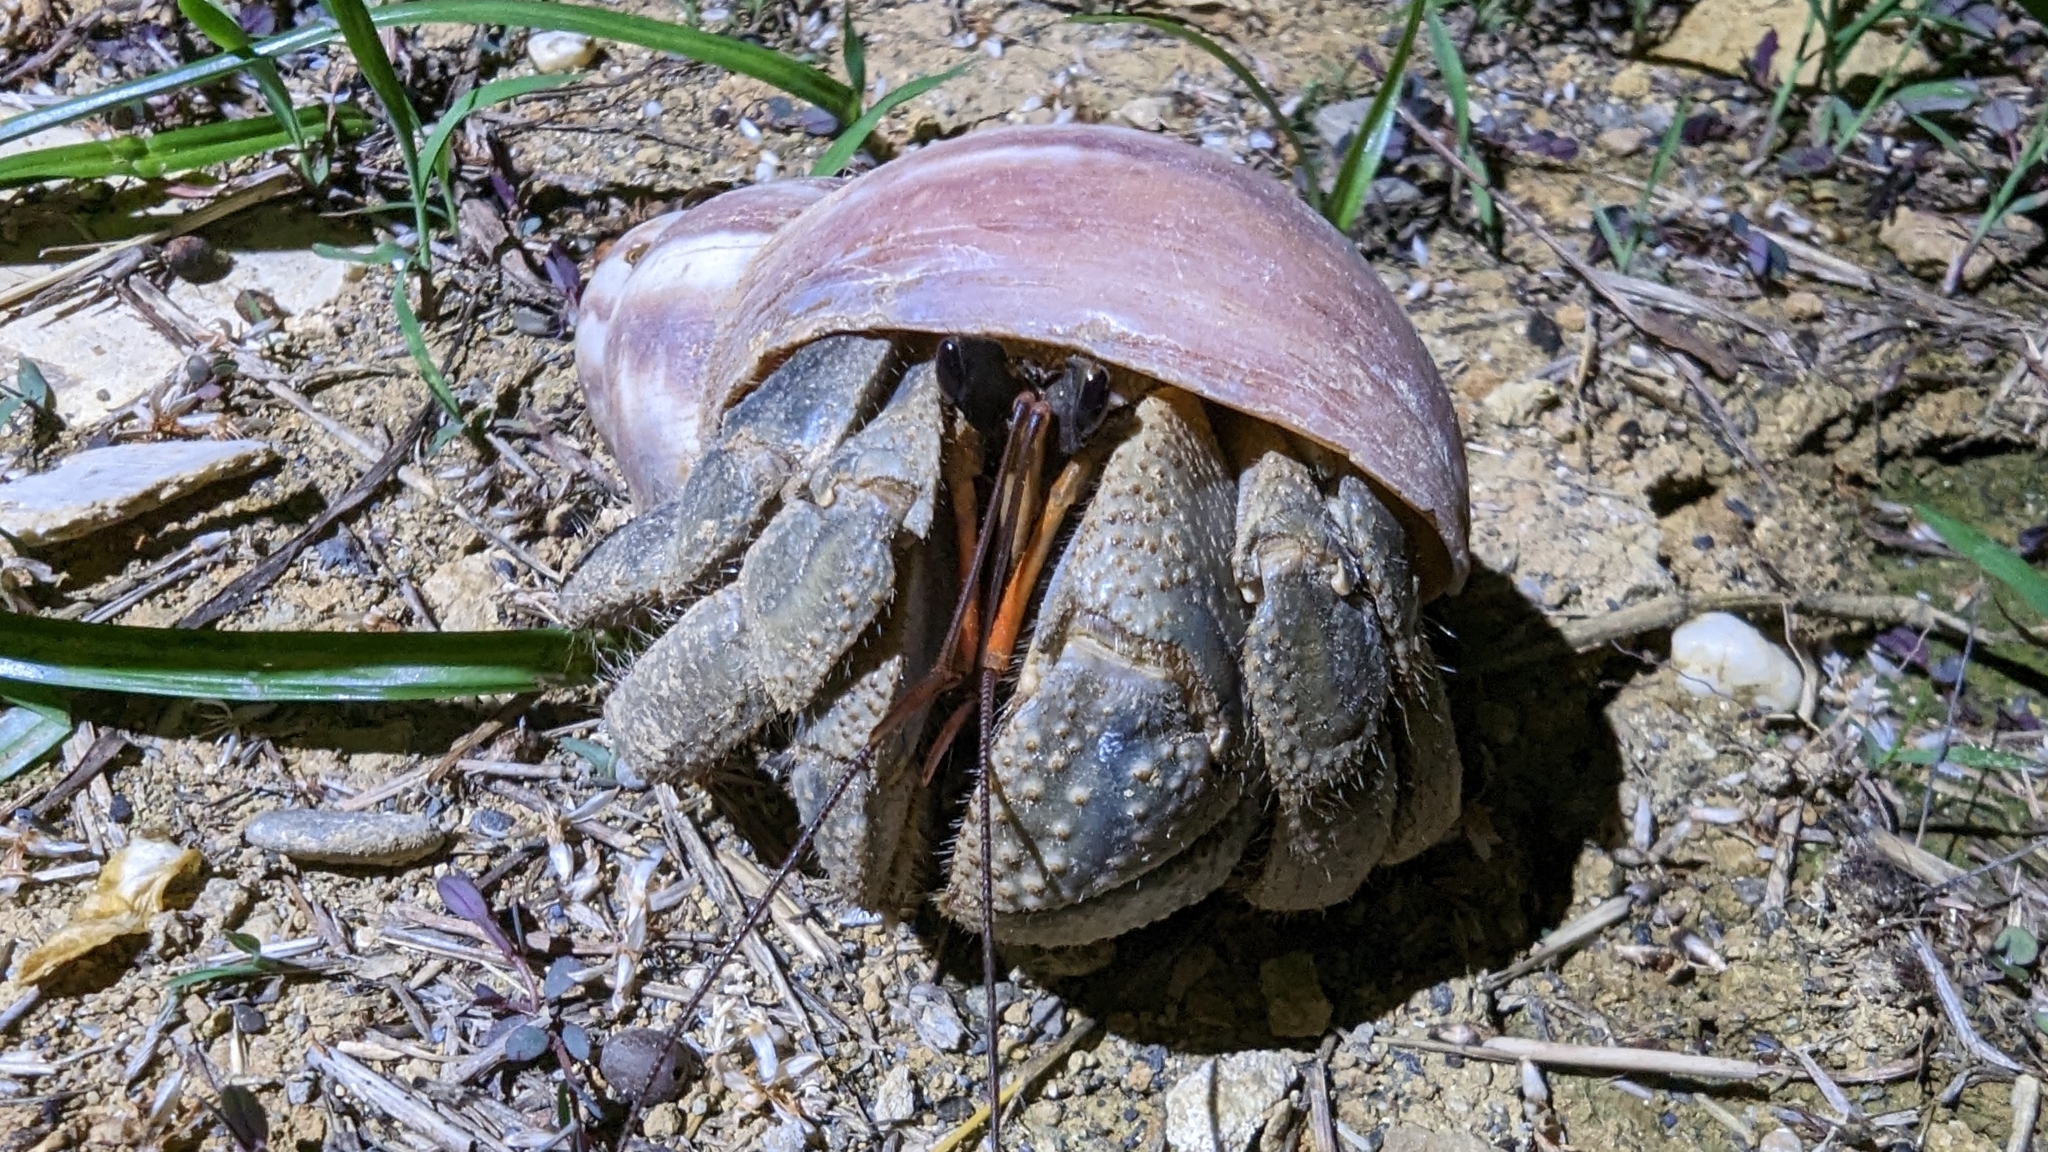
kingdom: Animalia
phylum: Arthropoda
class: Malacostraca
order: Decapoda
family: Coenobitidae
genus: Coenobita
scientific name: Coenobita cavipes
